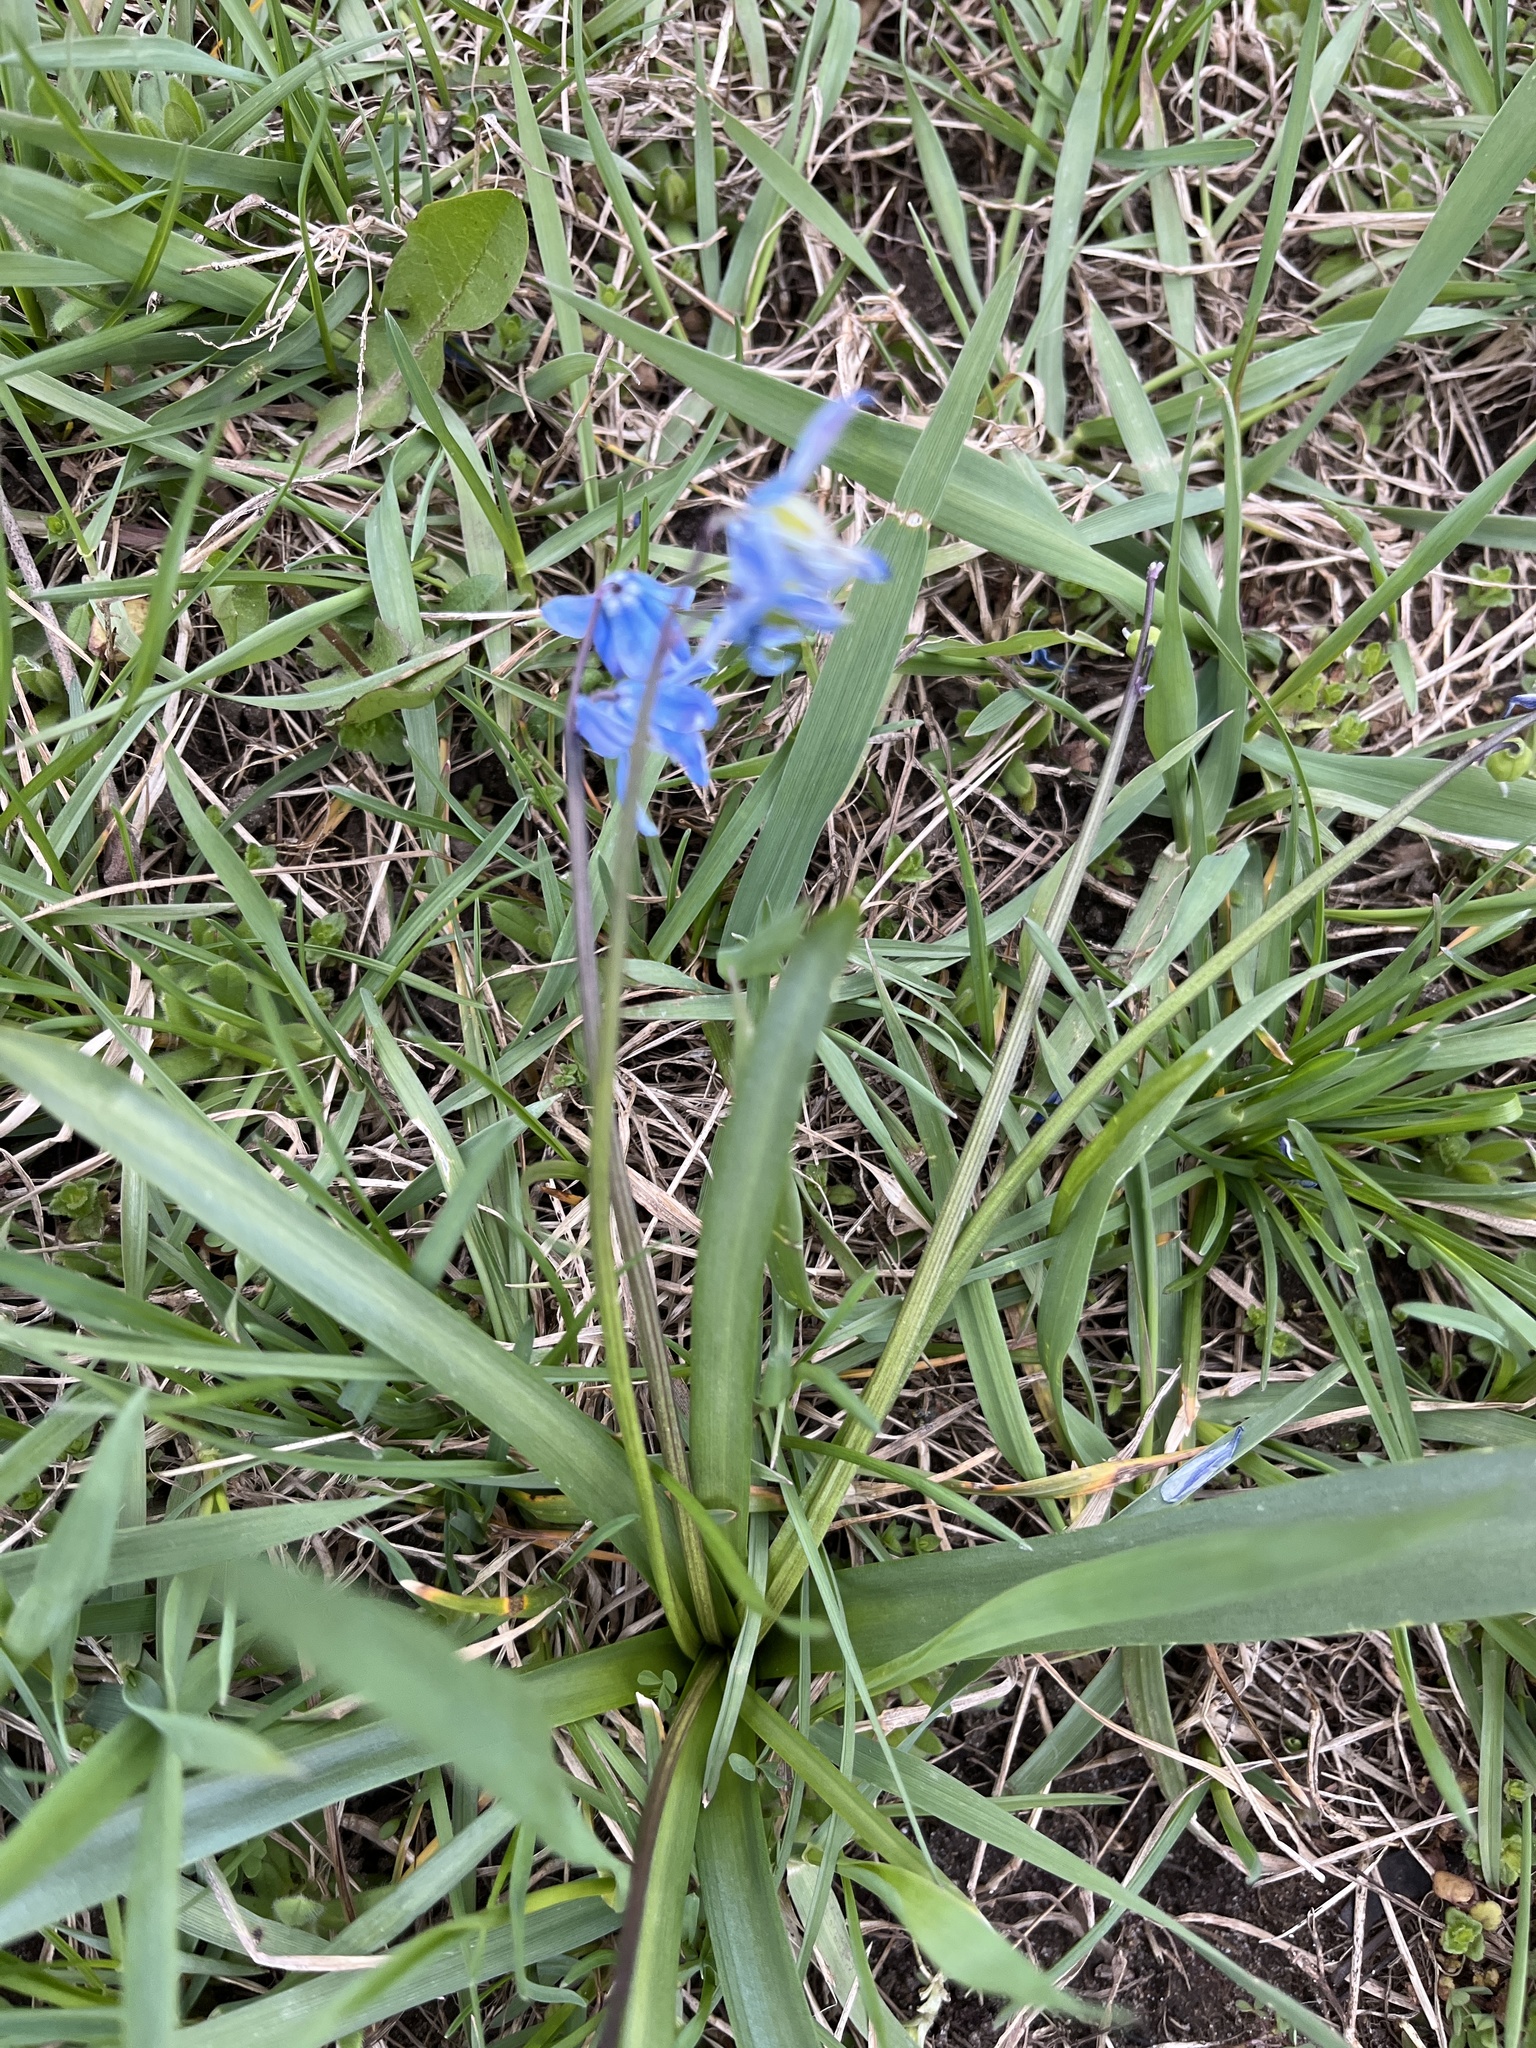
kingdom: Plantae
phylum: Tracheophyta
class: Liliopsida
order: Asparagales
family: Asparagaceae
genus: Scilla
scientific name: Scilla siberica
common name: Siberian squill
